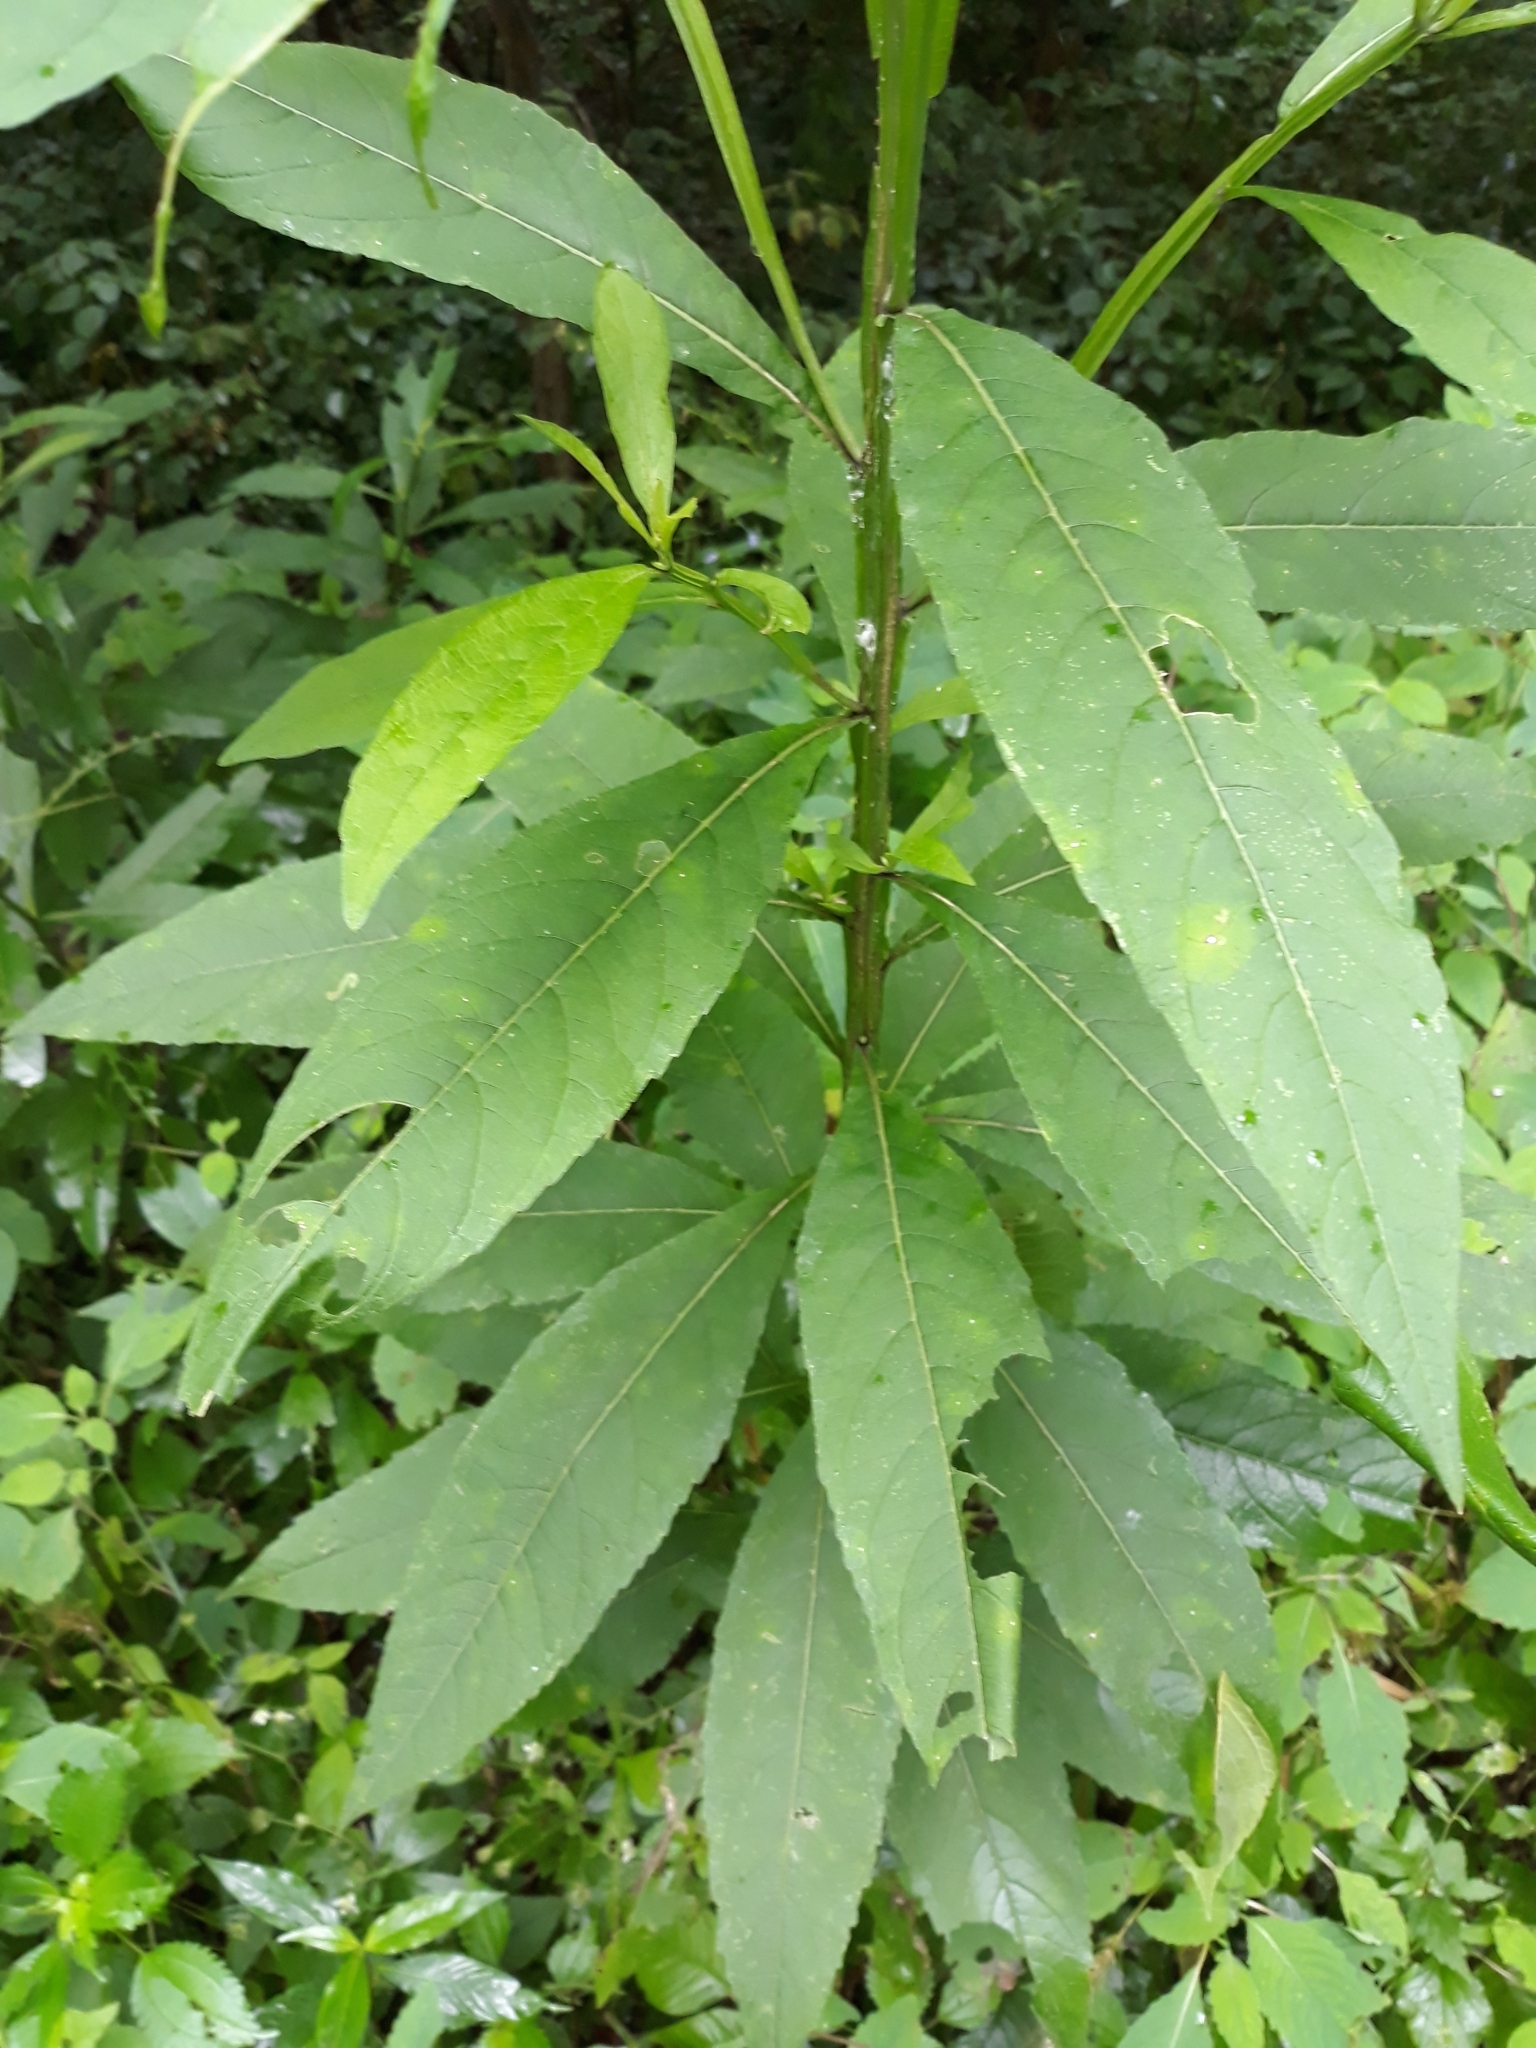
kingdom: Plantae
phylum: Tracheophyta
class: Magnoliopsida
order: Asterales
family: Asteraceae
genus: Verbesina
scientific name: Verbesina alternifolia
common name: Wingstem
